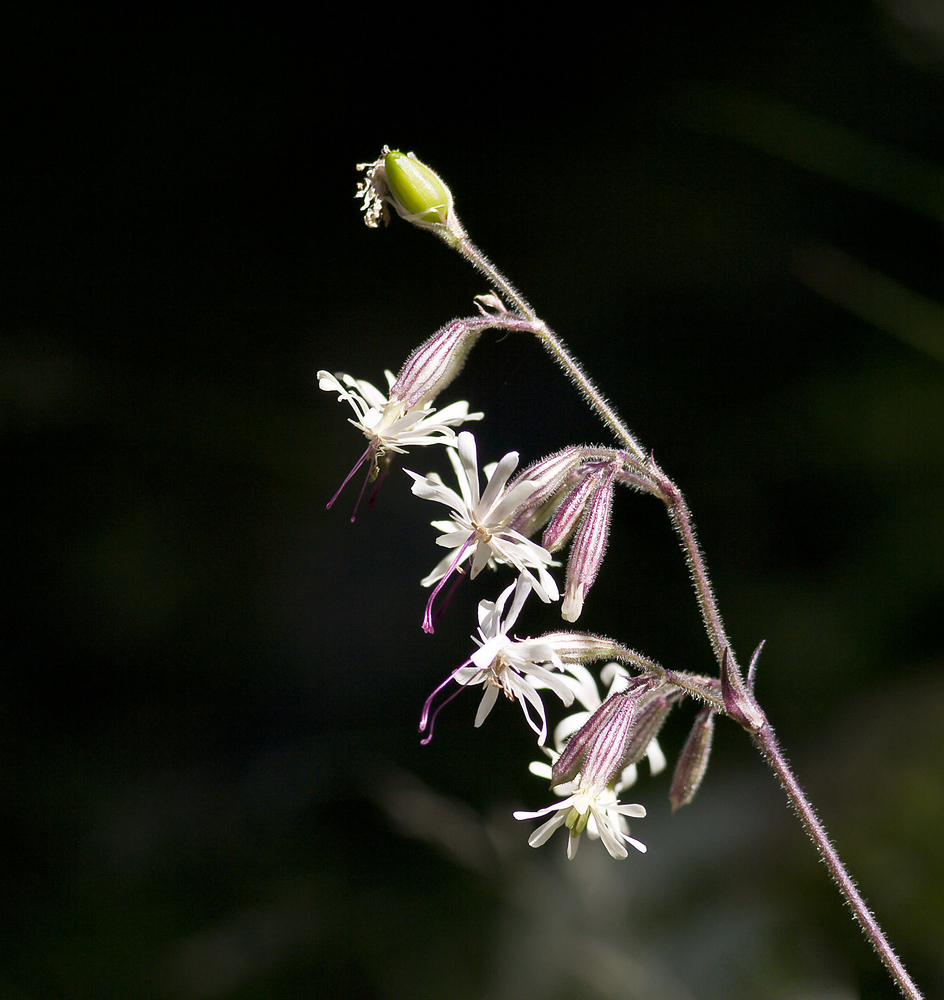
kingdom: Plantae
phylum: Tracheophyta
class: Magnoliopsida
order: Caryophyllales
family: Caryophyllaceae
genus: Silene
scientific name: Silene nutans
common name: Nottingham catchfly
